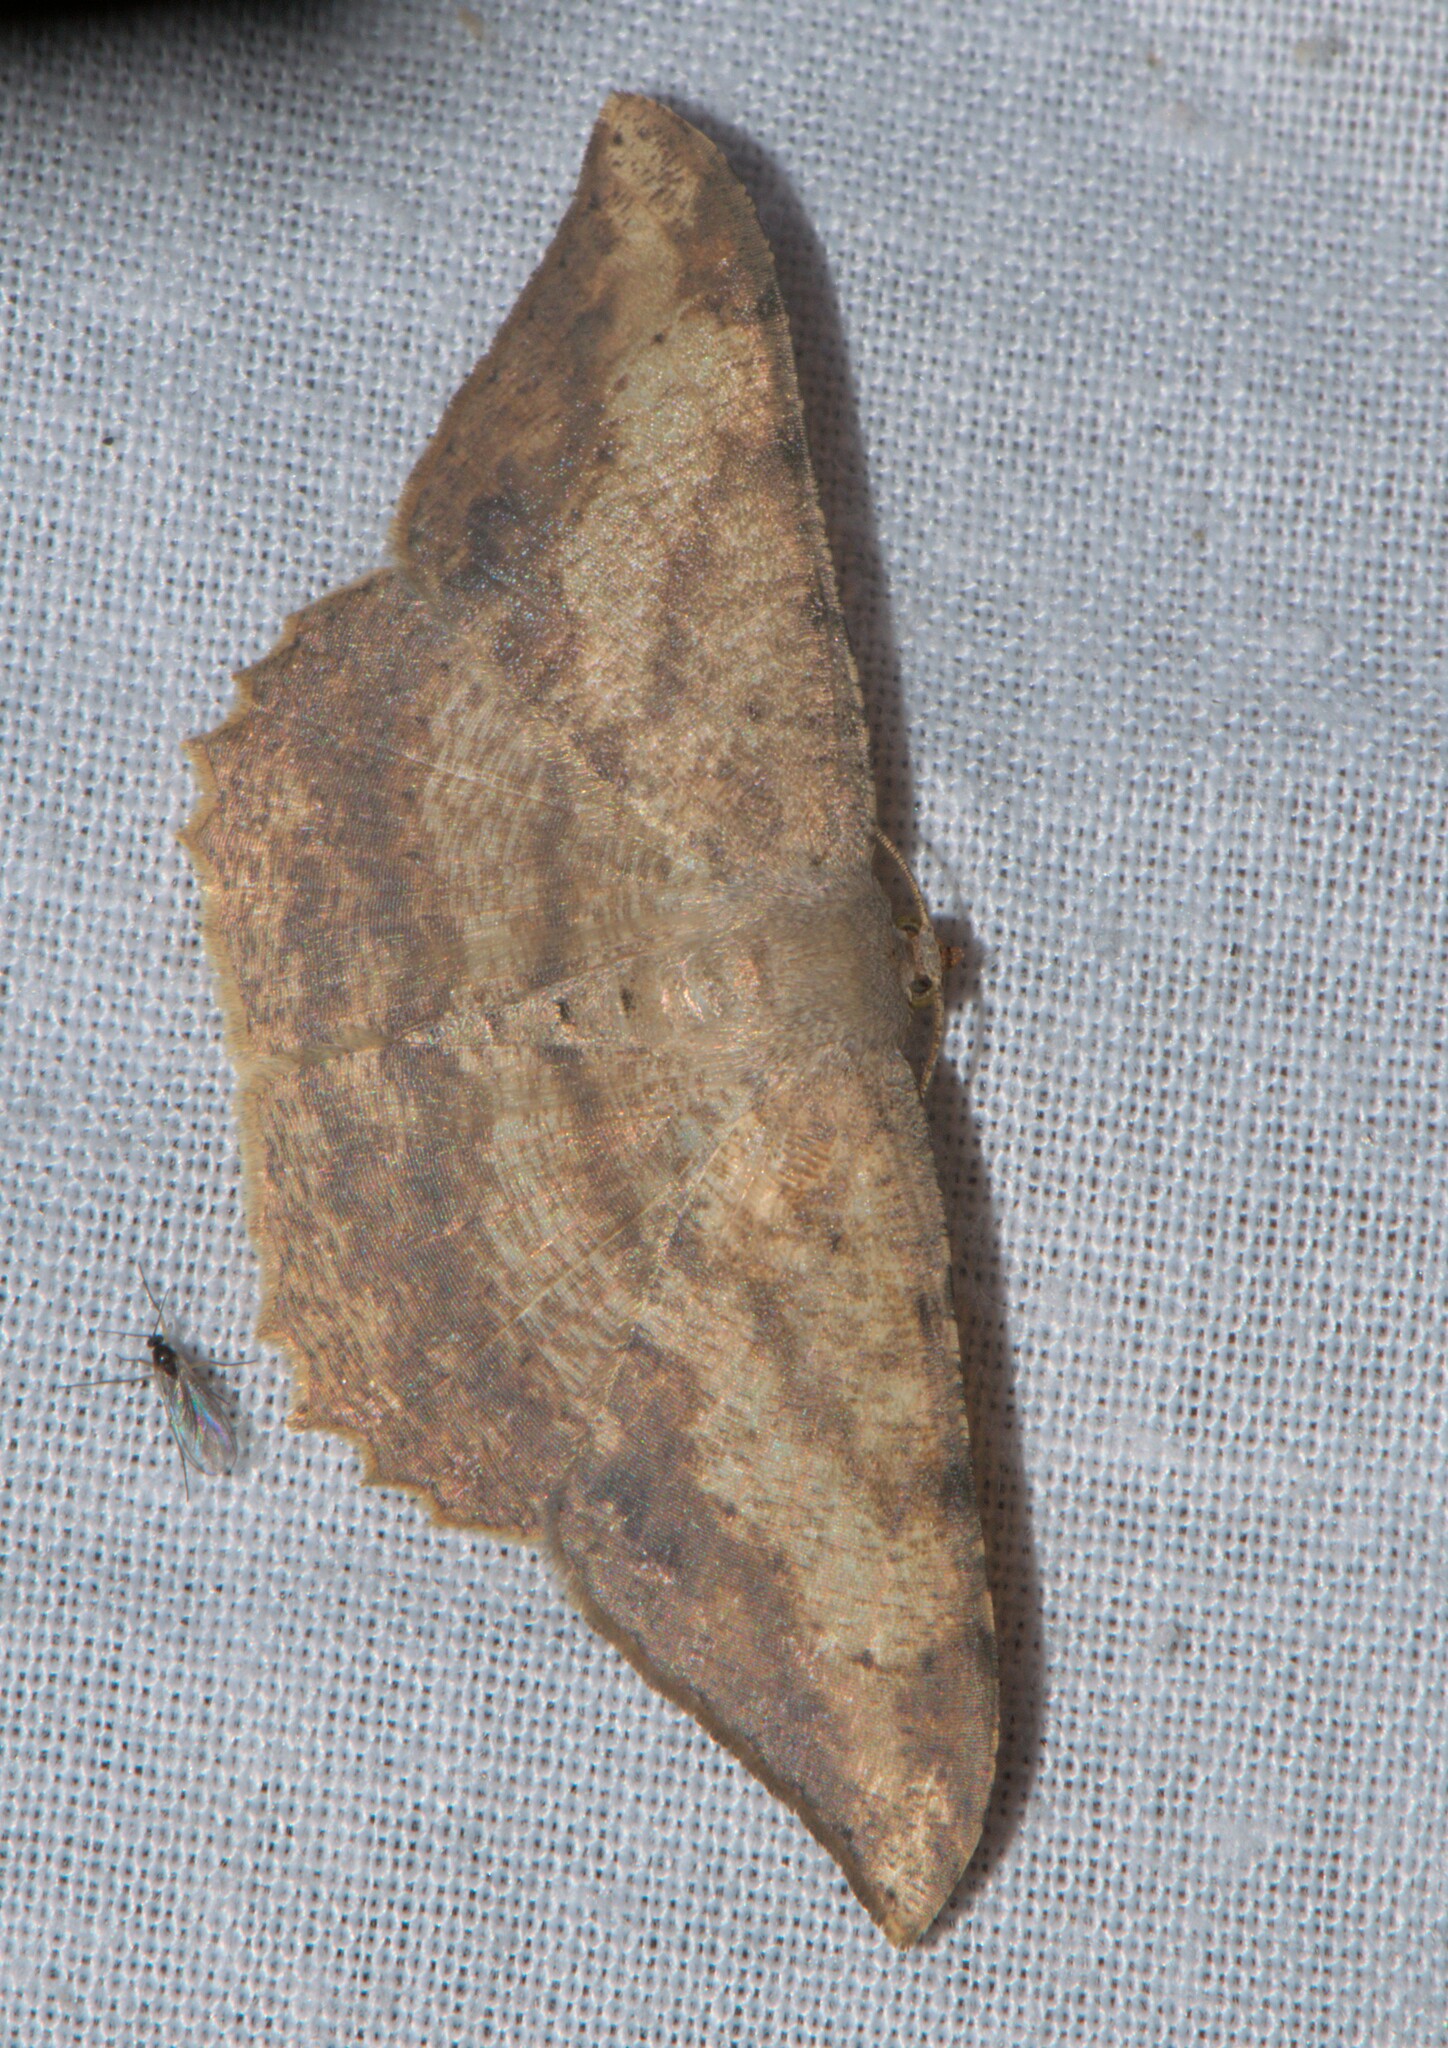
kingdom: Animalia
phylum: Arthropoda
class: Insecta
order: Lepidoptera
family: Geometridae
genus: Luxiaria
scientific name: Luxiaria amasa
